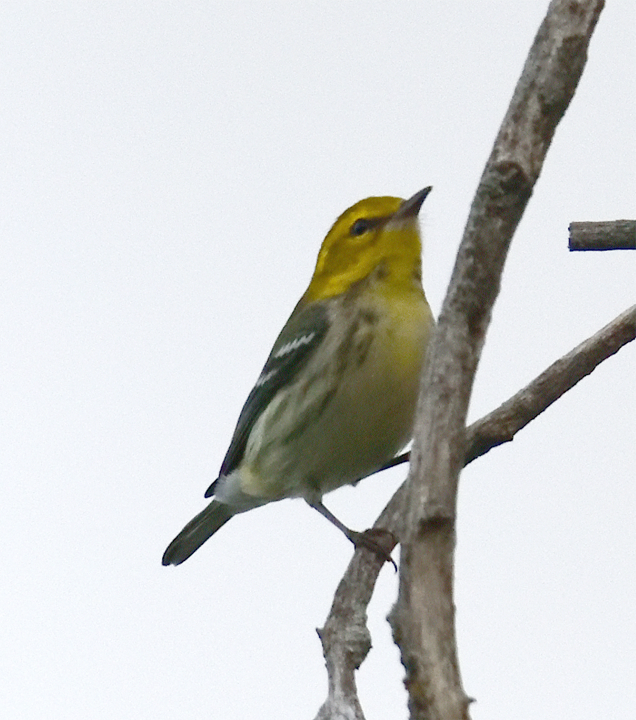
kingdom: Animalia
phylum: Chordata
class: Aves
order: Passeriformes
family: Parulidae
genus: Setophaga
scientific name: Setophaga virens
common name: Black-throated green warbler
